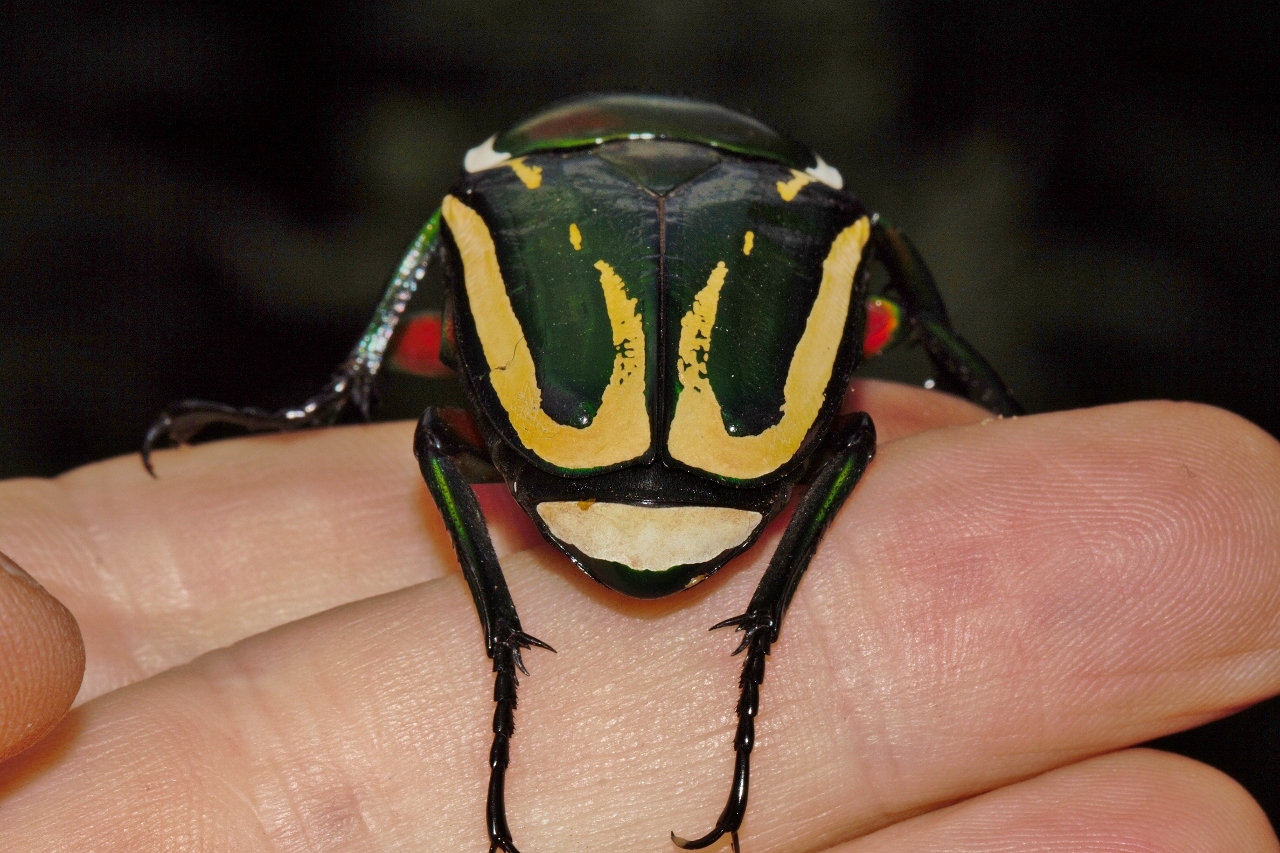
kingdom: Animalia
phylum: Arthropoda
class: Insecta
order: Coleoptera
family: Scarabaeidae
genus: Dicronorhina
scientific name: Dicronorhina derbyana
